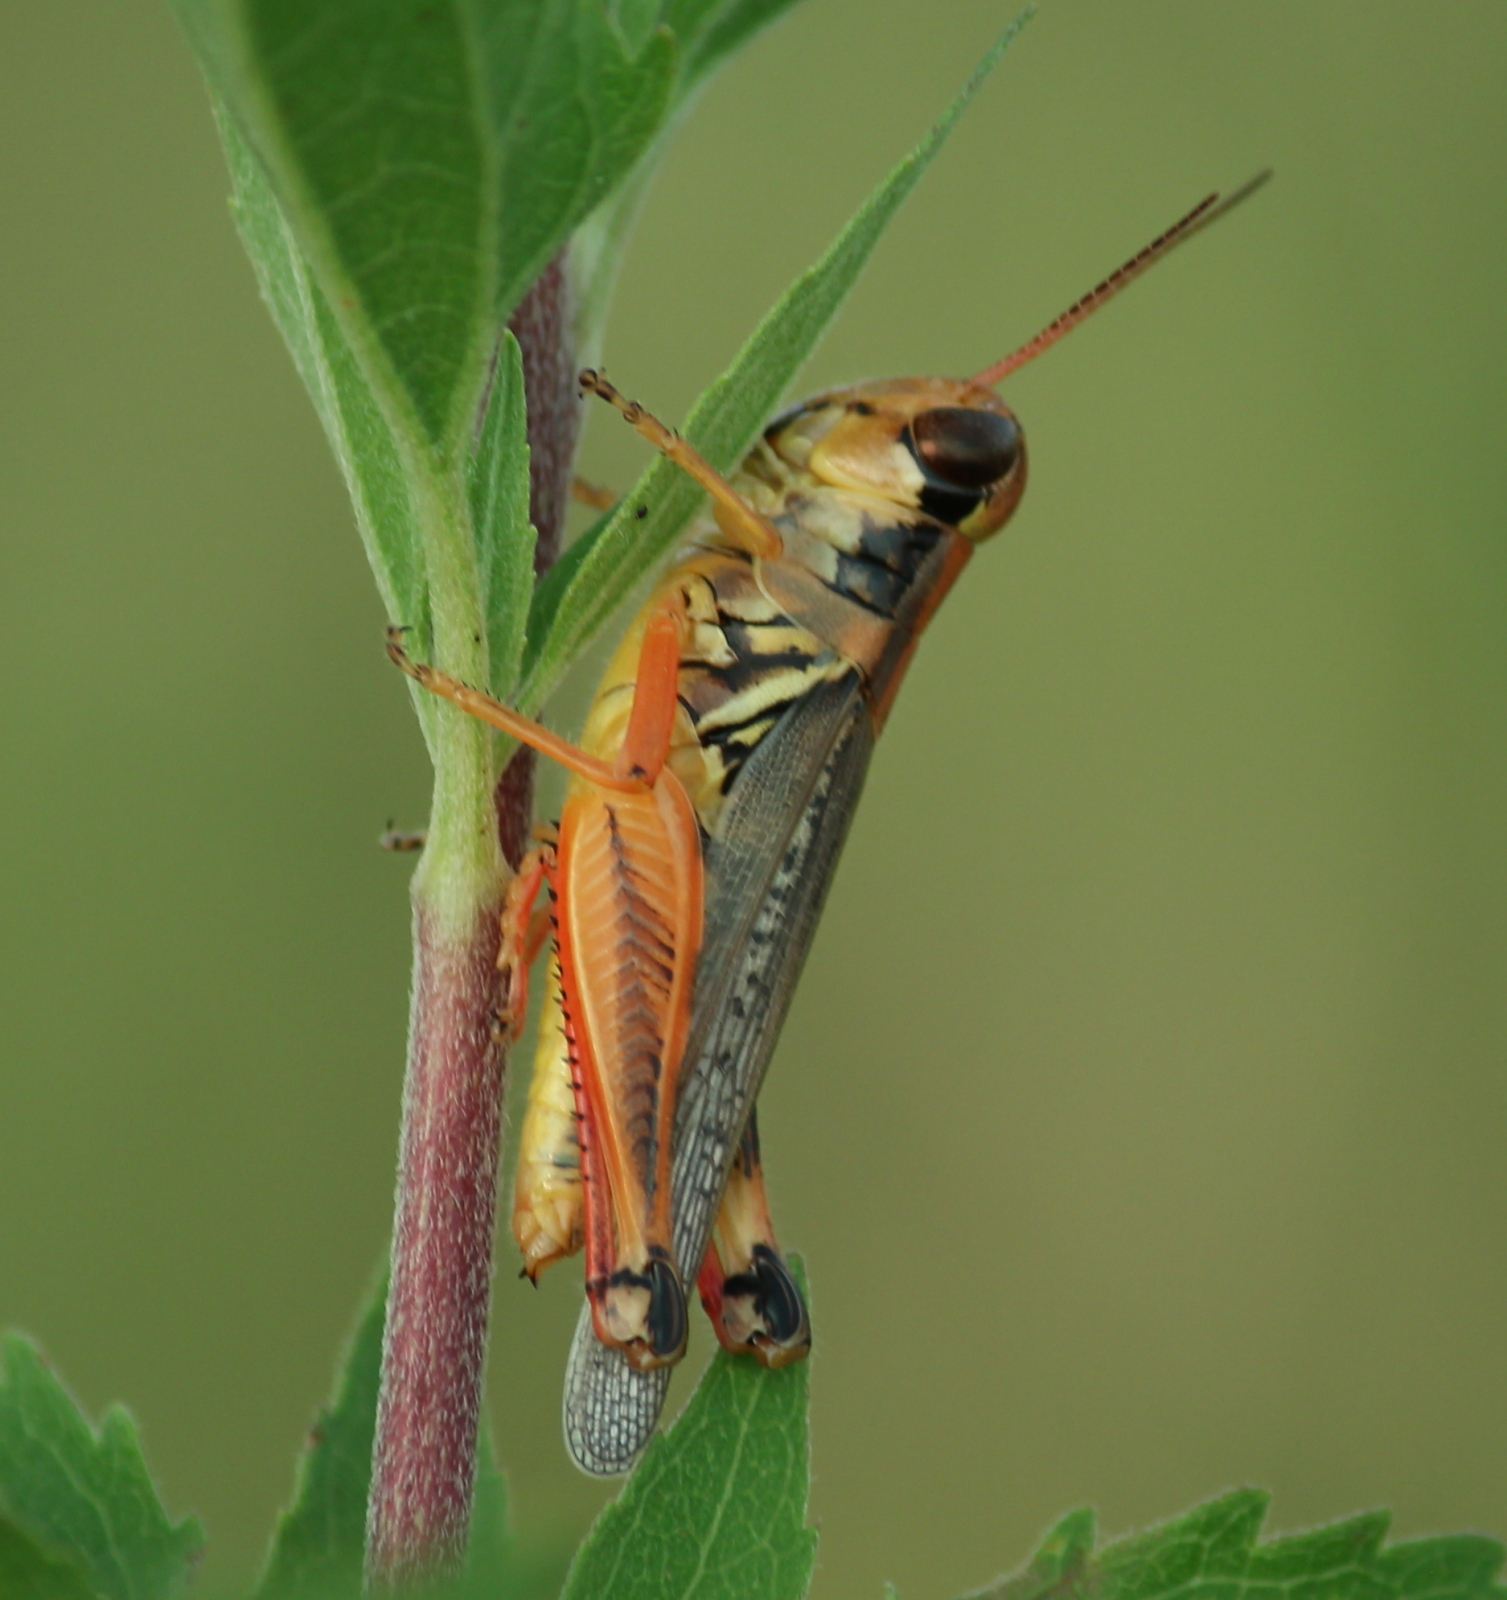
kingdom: Animalia
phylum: Arthropoda
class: Insecta
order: Orthoptera
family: Acrididae
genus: Melanoplus
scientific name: Melanoplus femurrubrum
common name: Red-legged grasshopper
